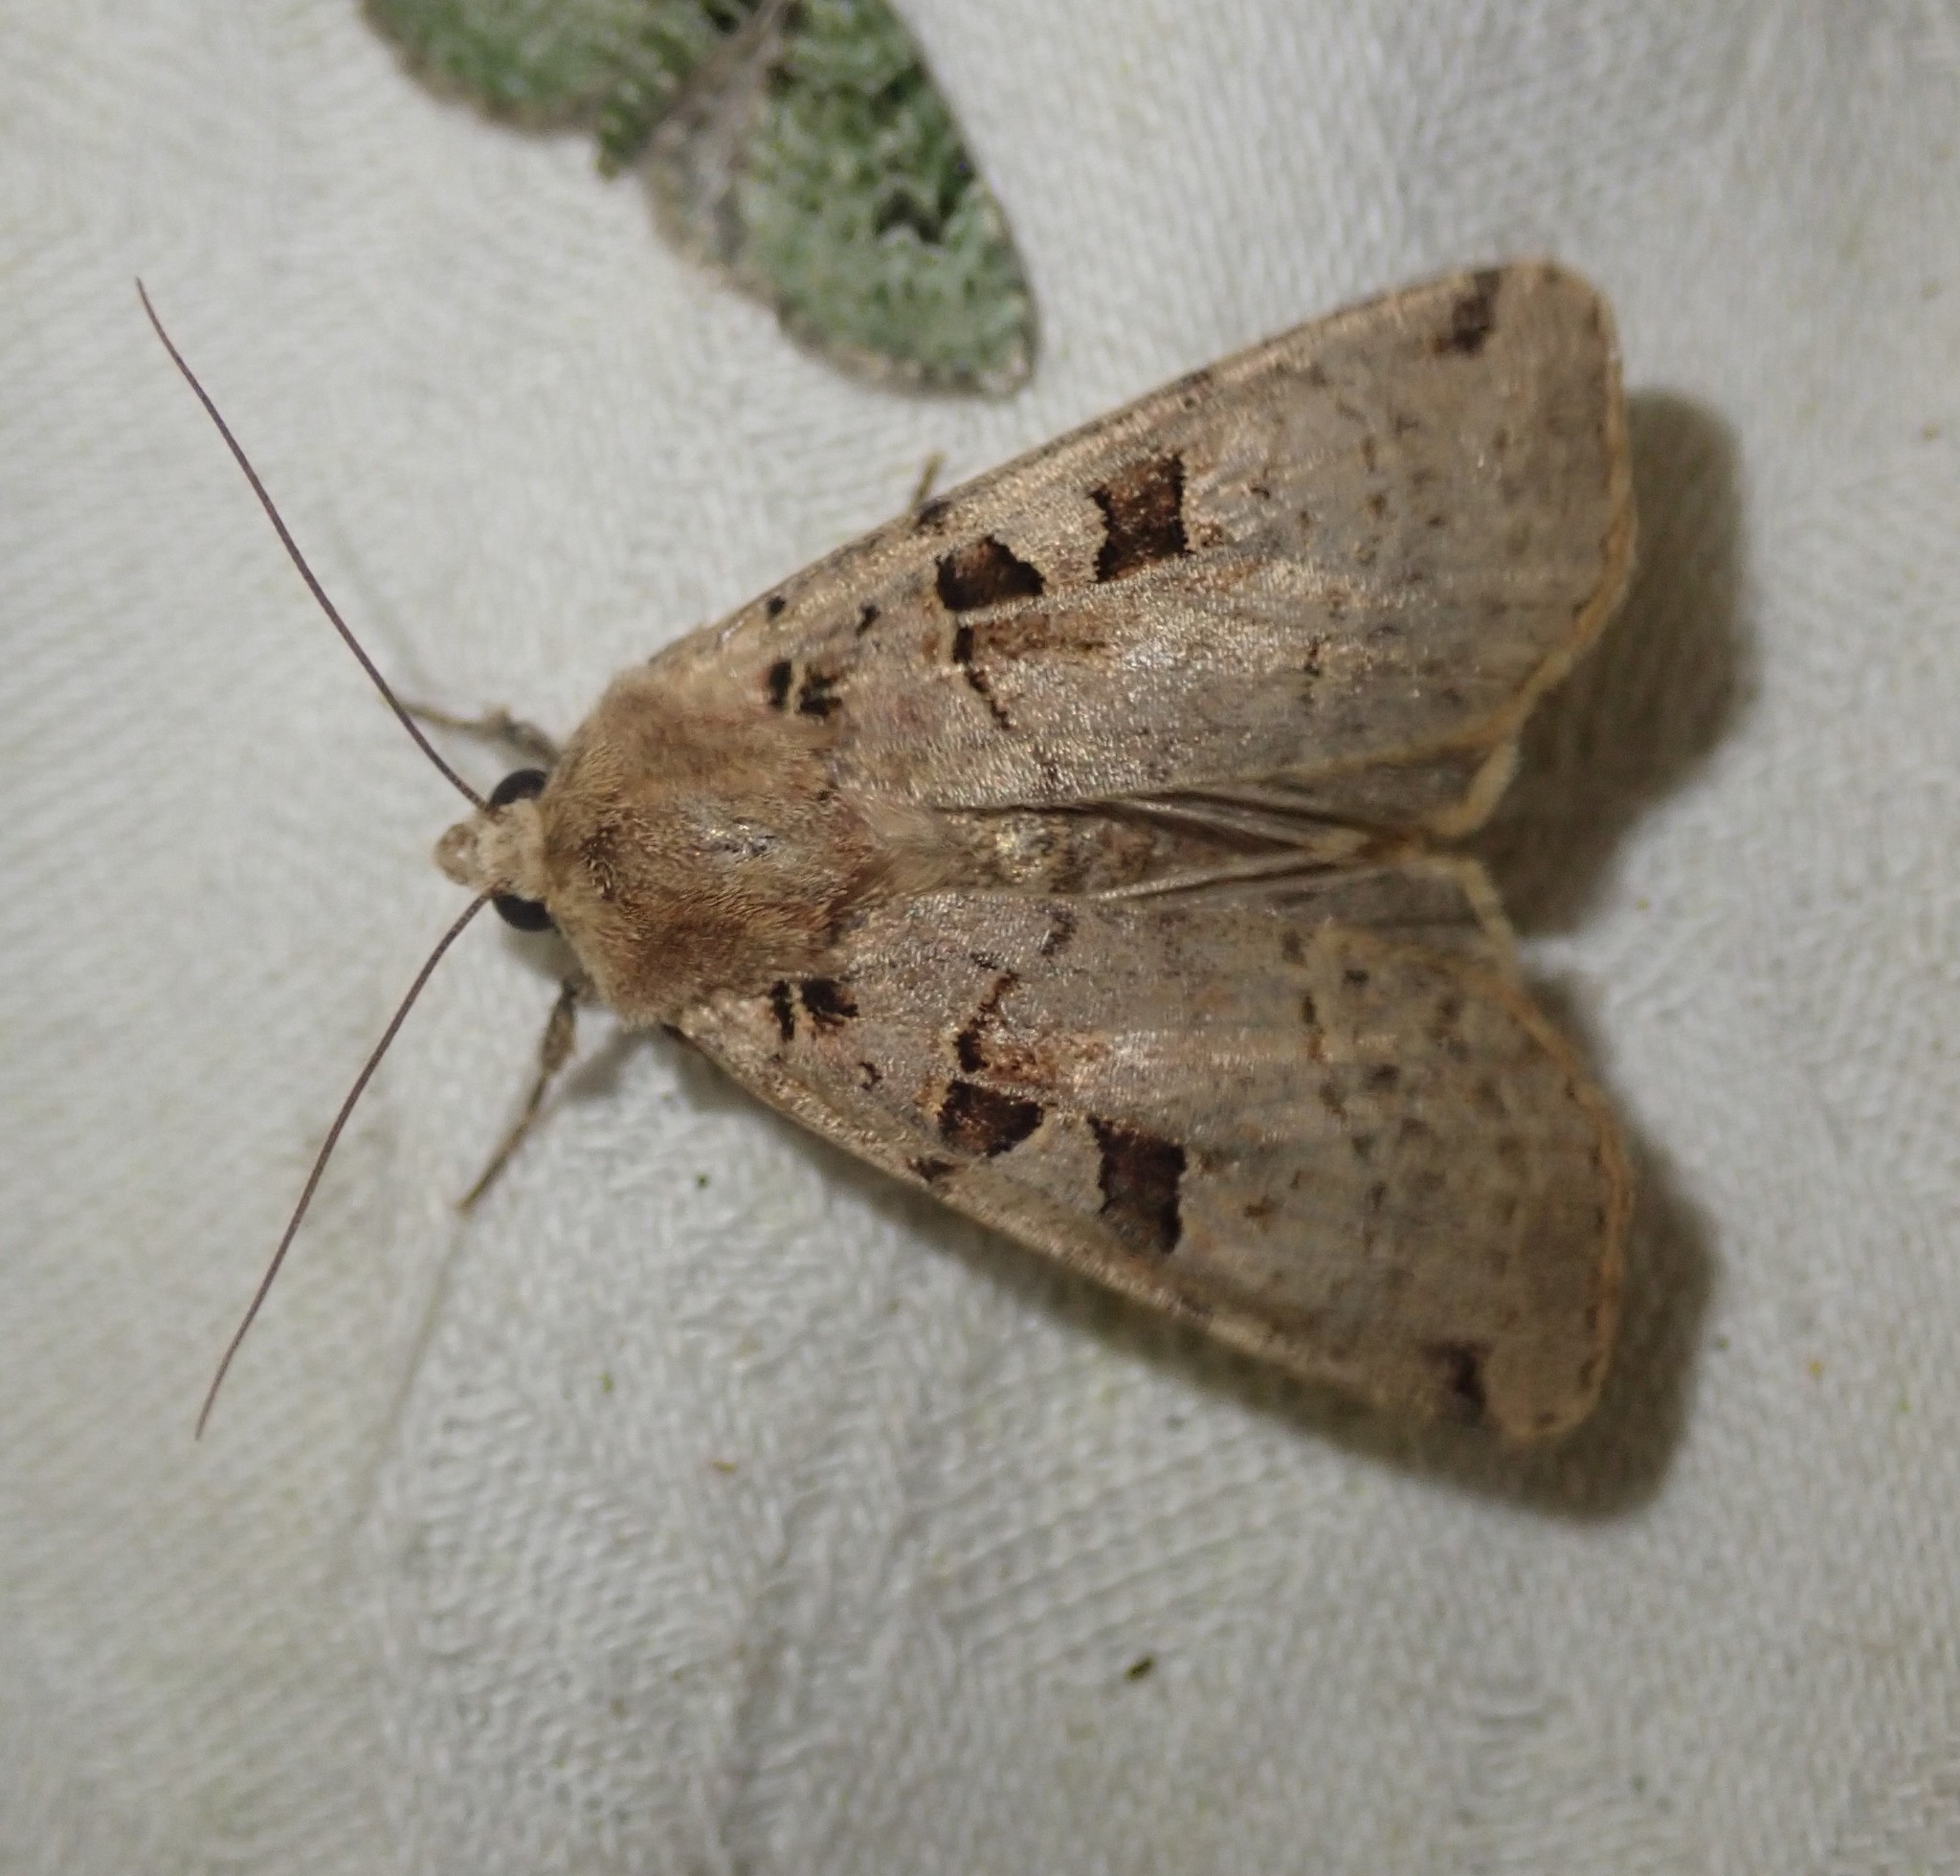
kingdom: Animalia
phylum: Arthropoda
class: Insecta
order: Lepidoptera
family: Noctuidae
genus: Xestia
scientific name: Xestia triangulum
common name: Double square-spot
